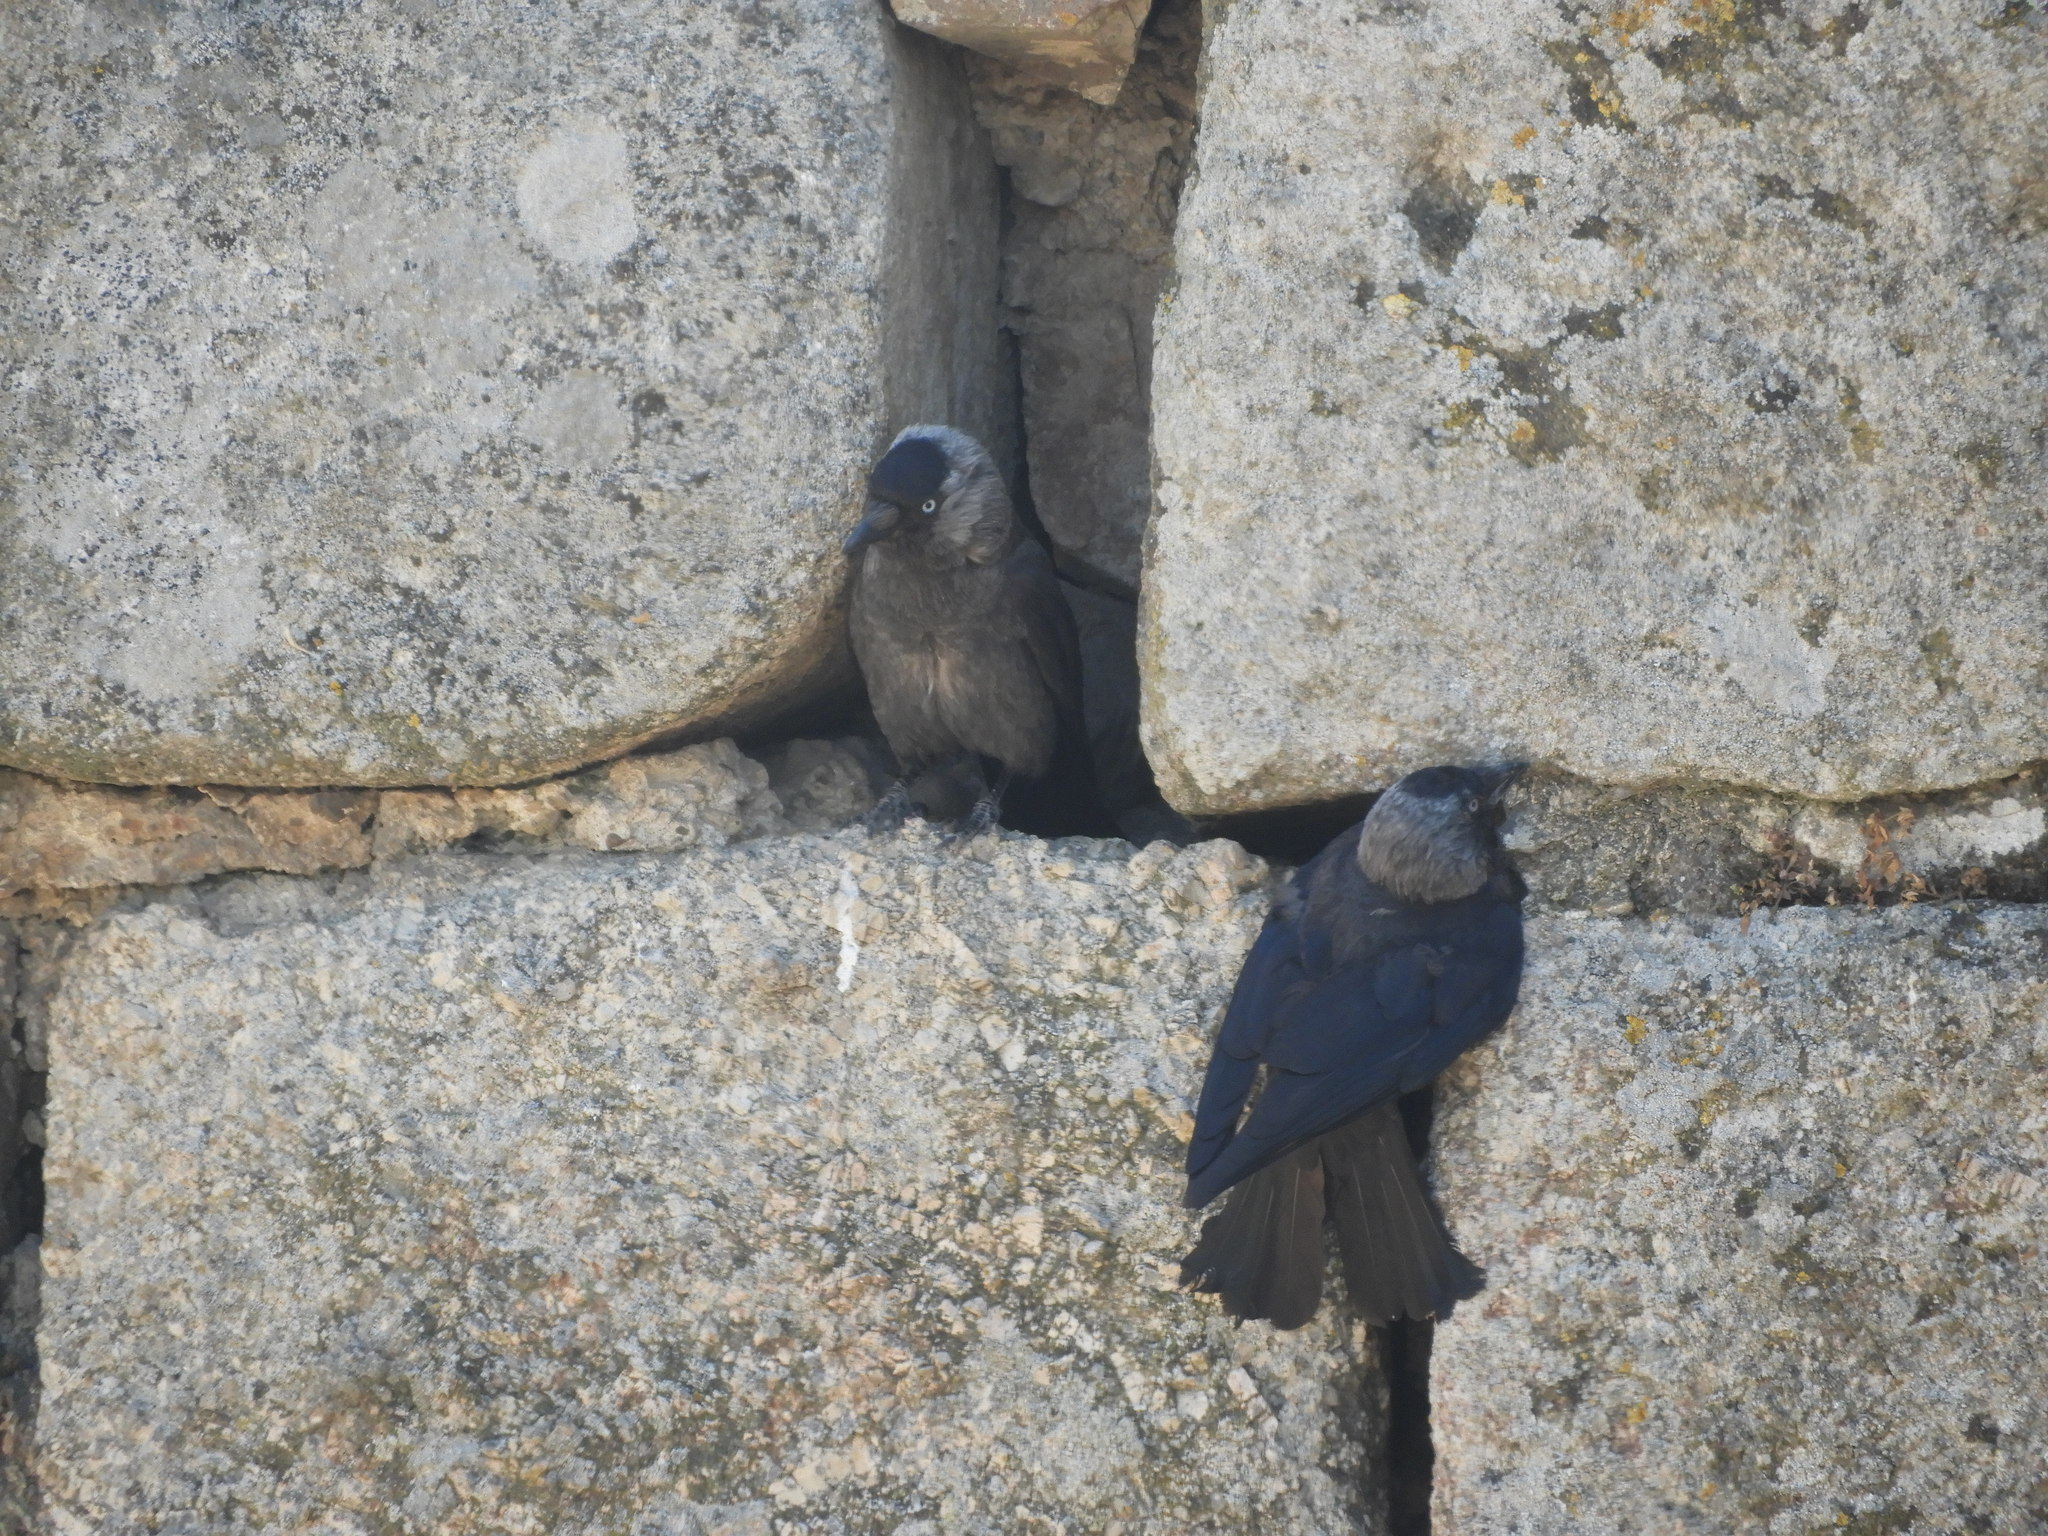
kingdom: Animalia
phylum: Chordata
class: Aves
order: Passeriformes
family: Corvidae
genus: Coloeus
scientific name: Coloeus monedula
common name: Western jackdaw
